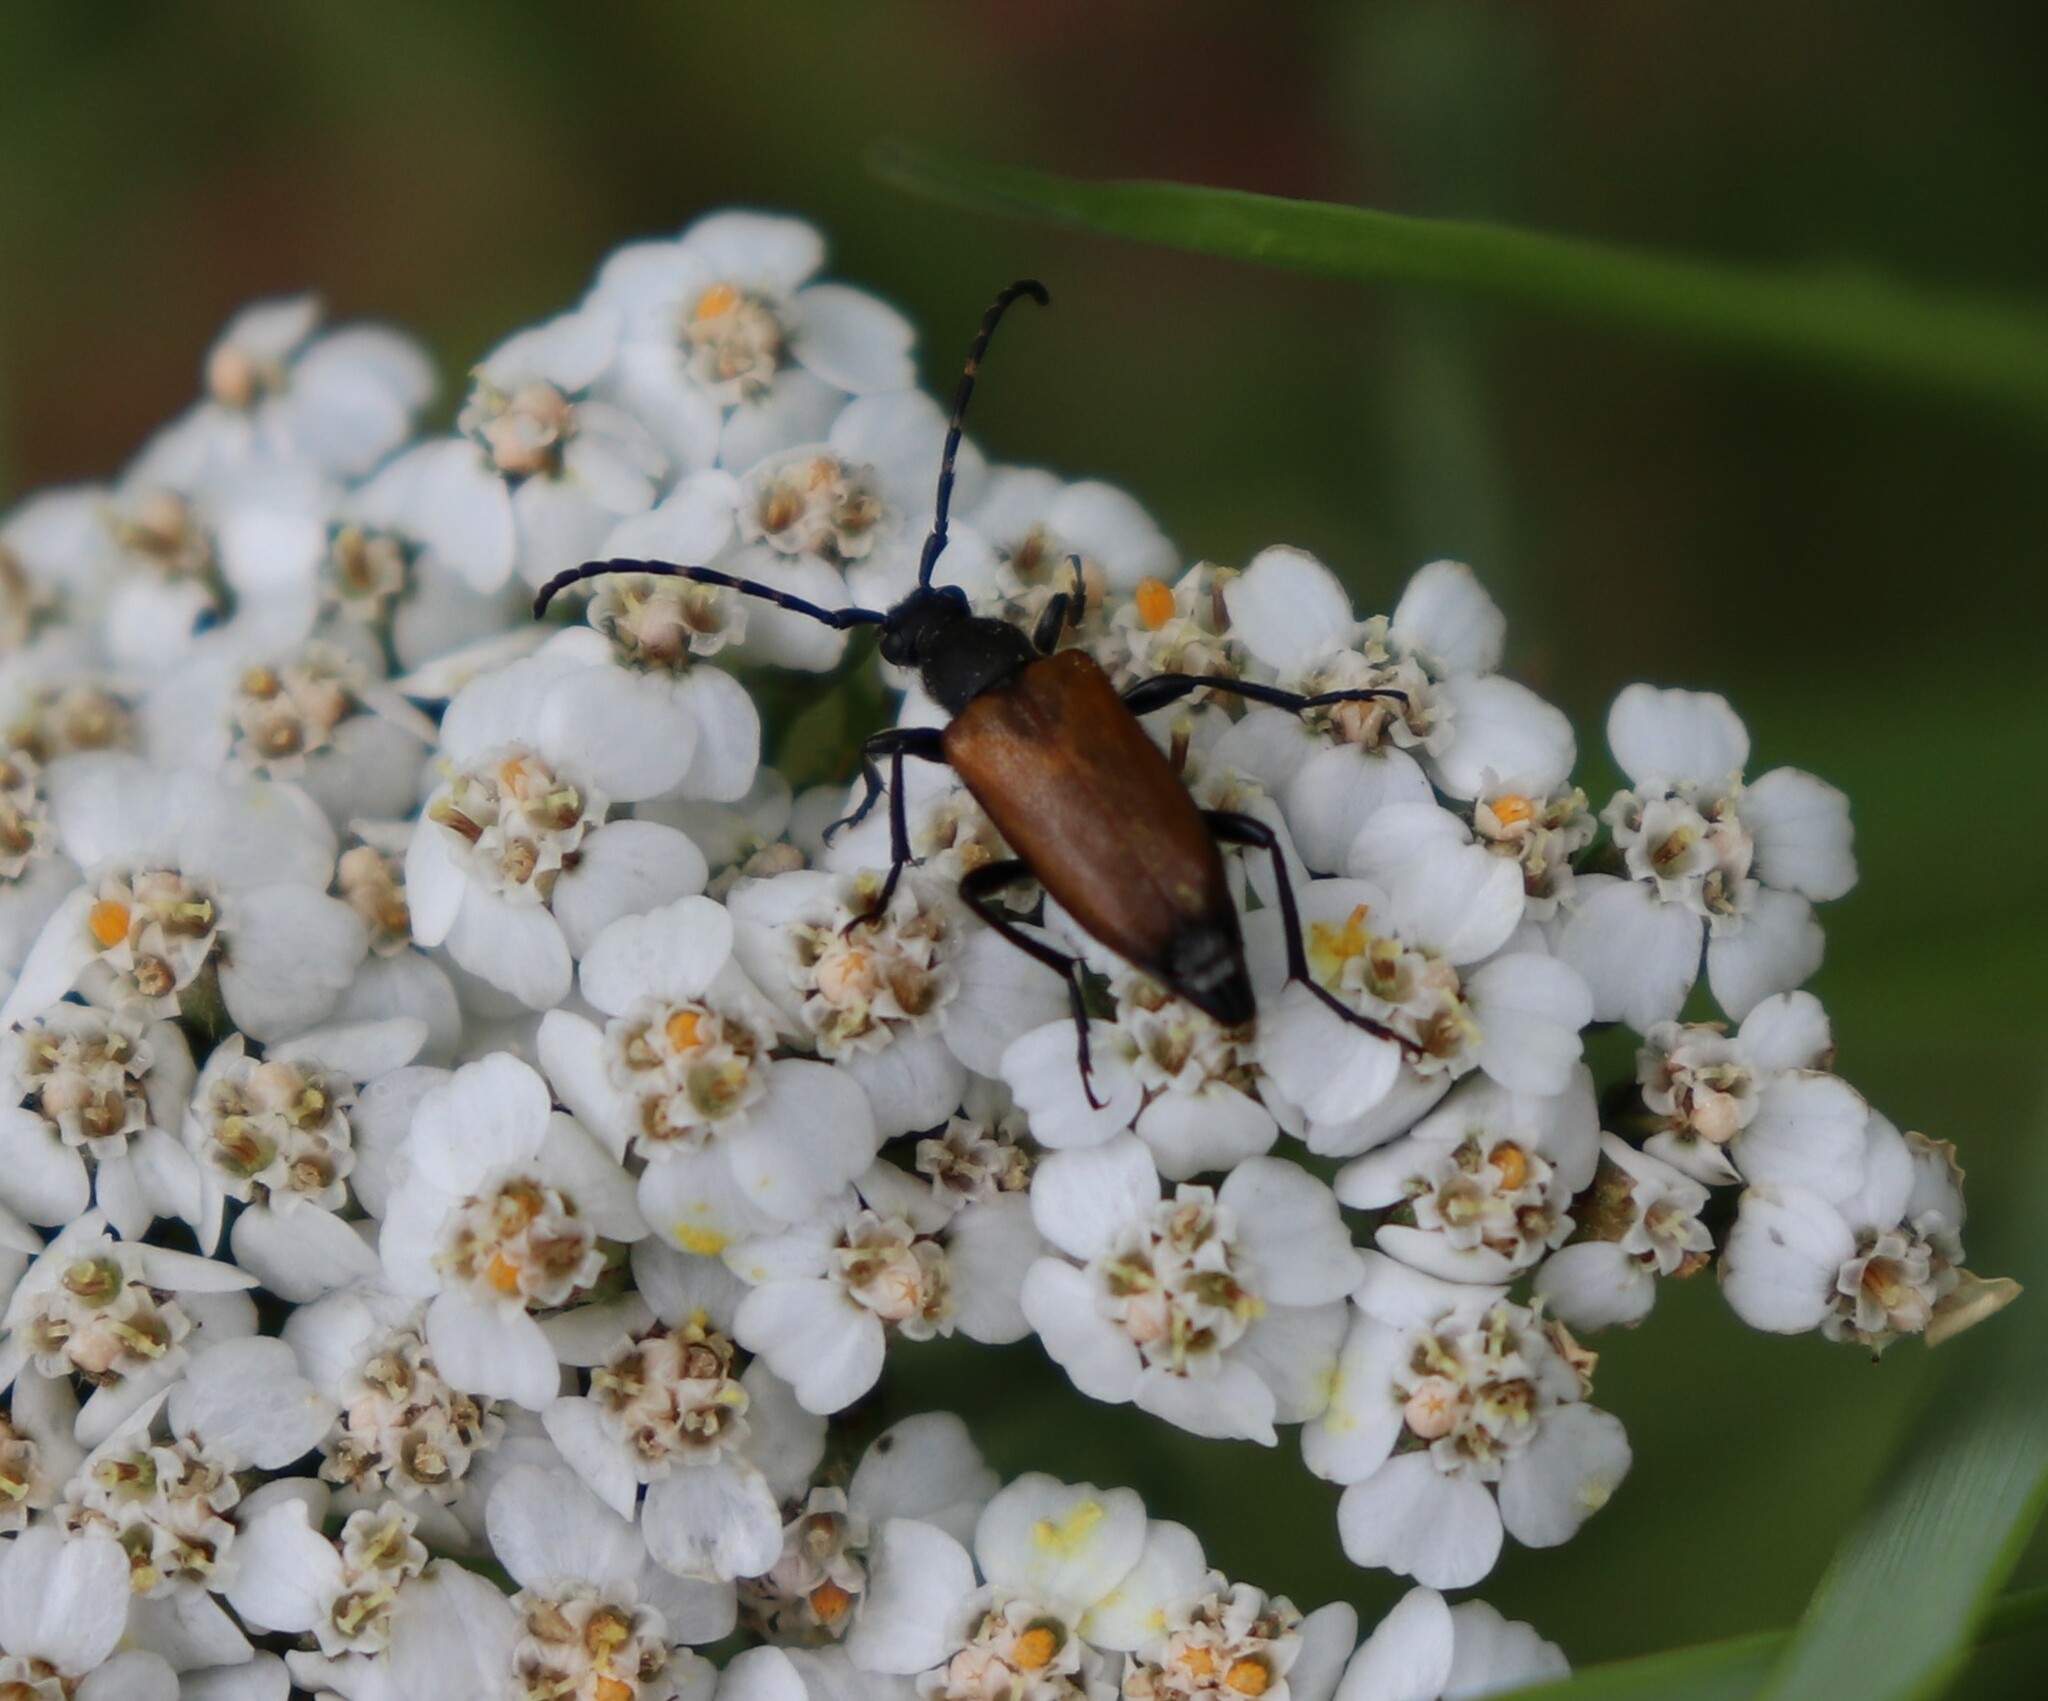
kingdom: Animalia
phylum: Arthropoda
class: Insecta
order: Coleoptera
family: Cerambycidae
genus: Paracorymbia
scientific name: Paracorymbia maculicornis
